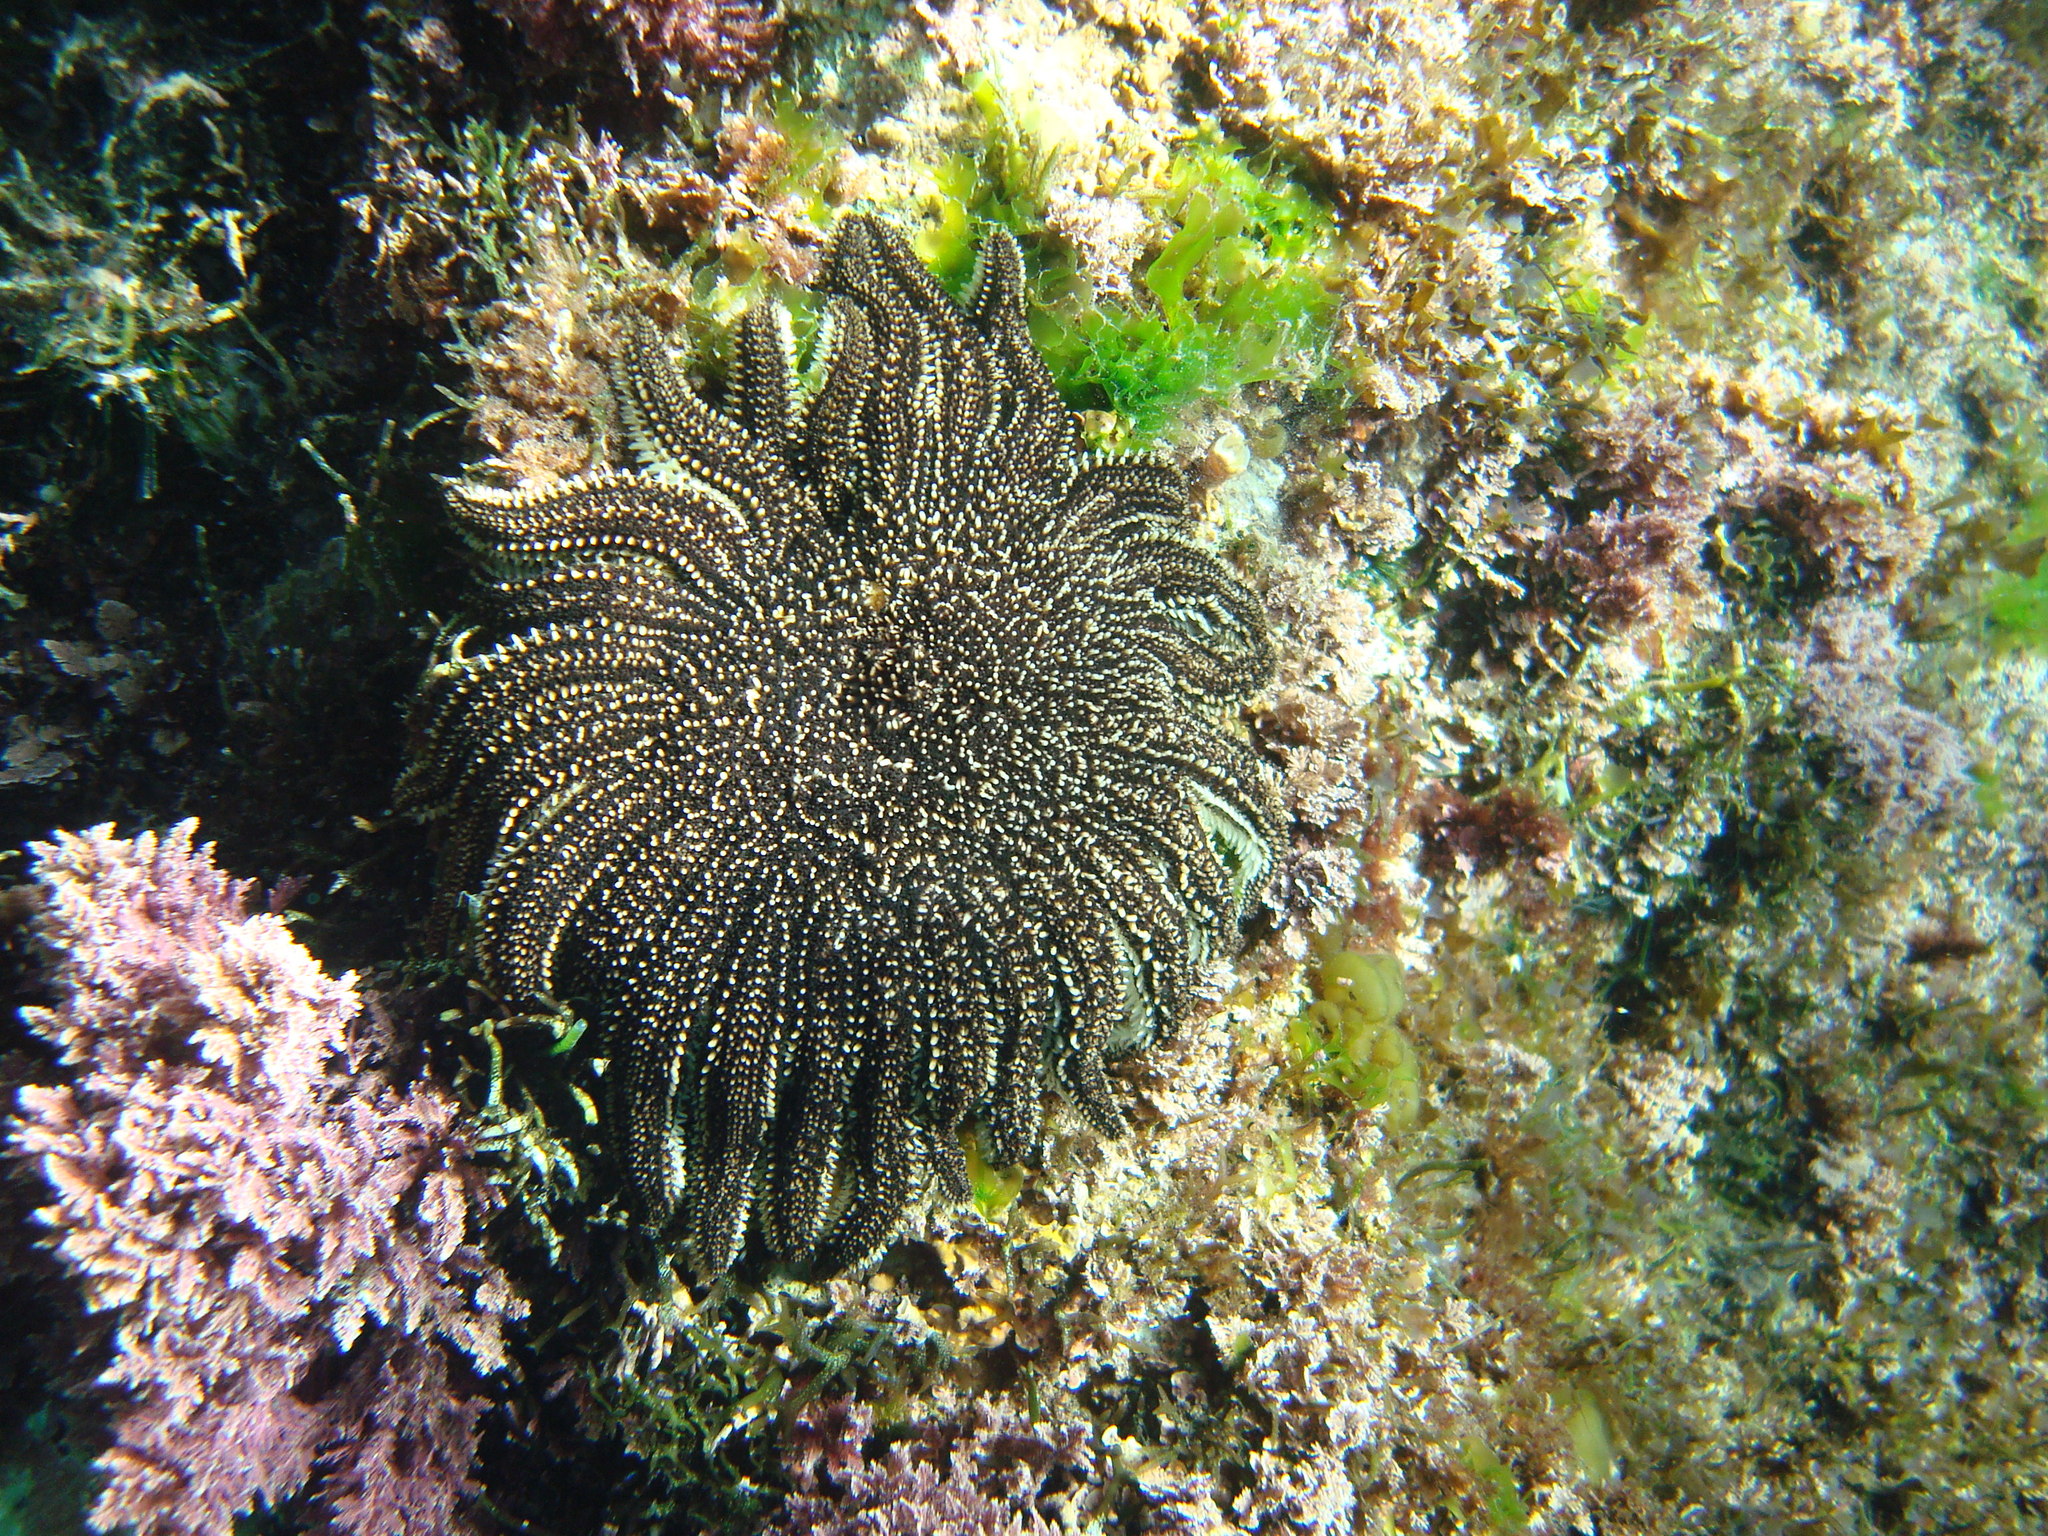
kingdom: Animalia
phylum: Echinodermata
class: Asteroidea
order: Forcipulatida
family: Heliasteridae
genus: Heliaster
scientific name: Heliaster canopus
